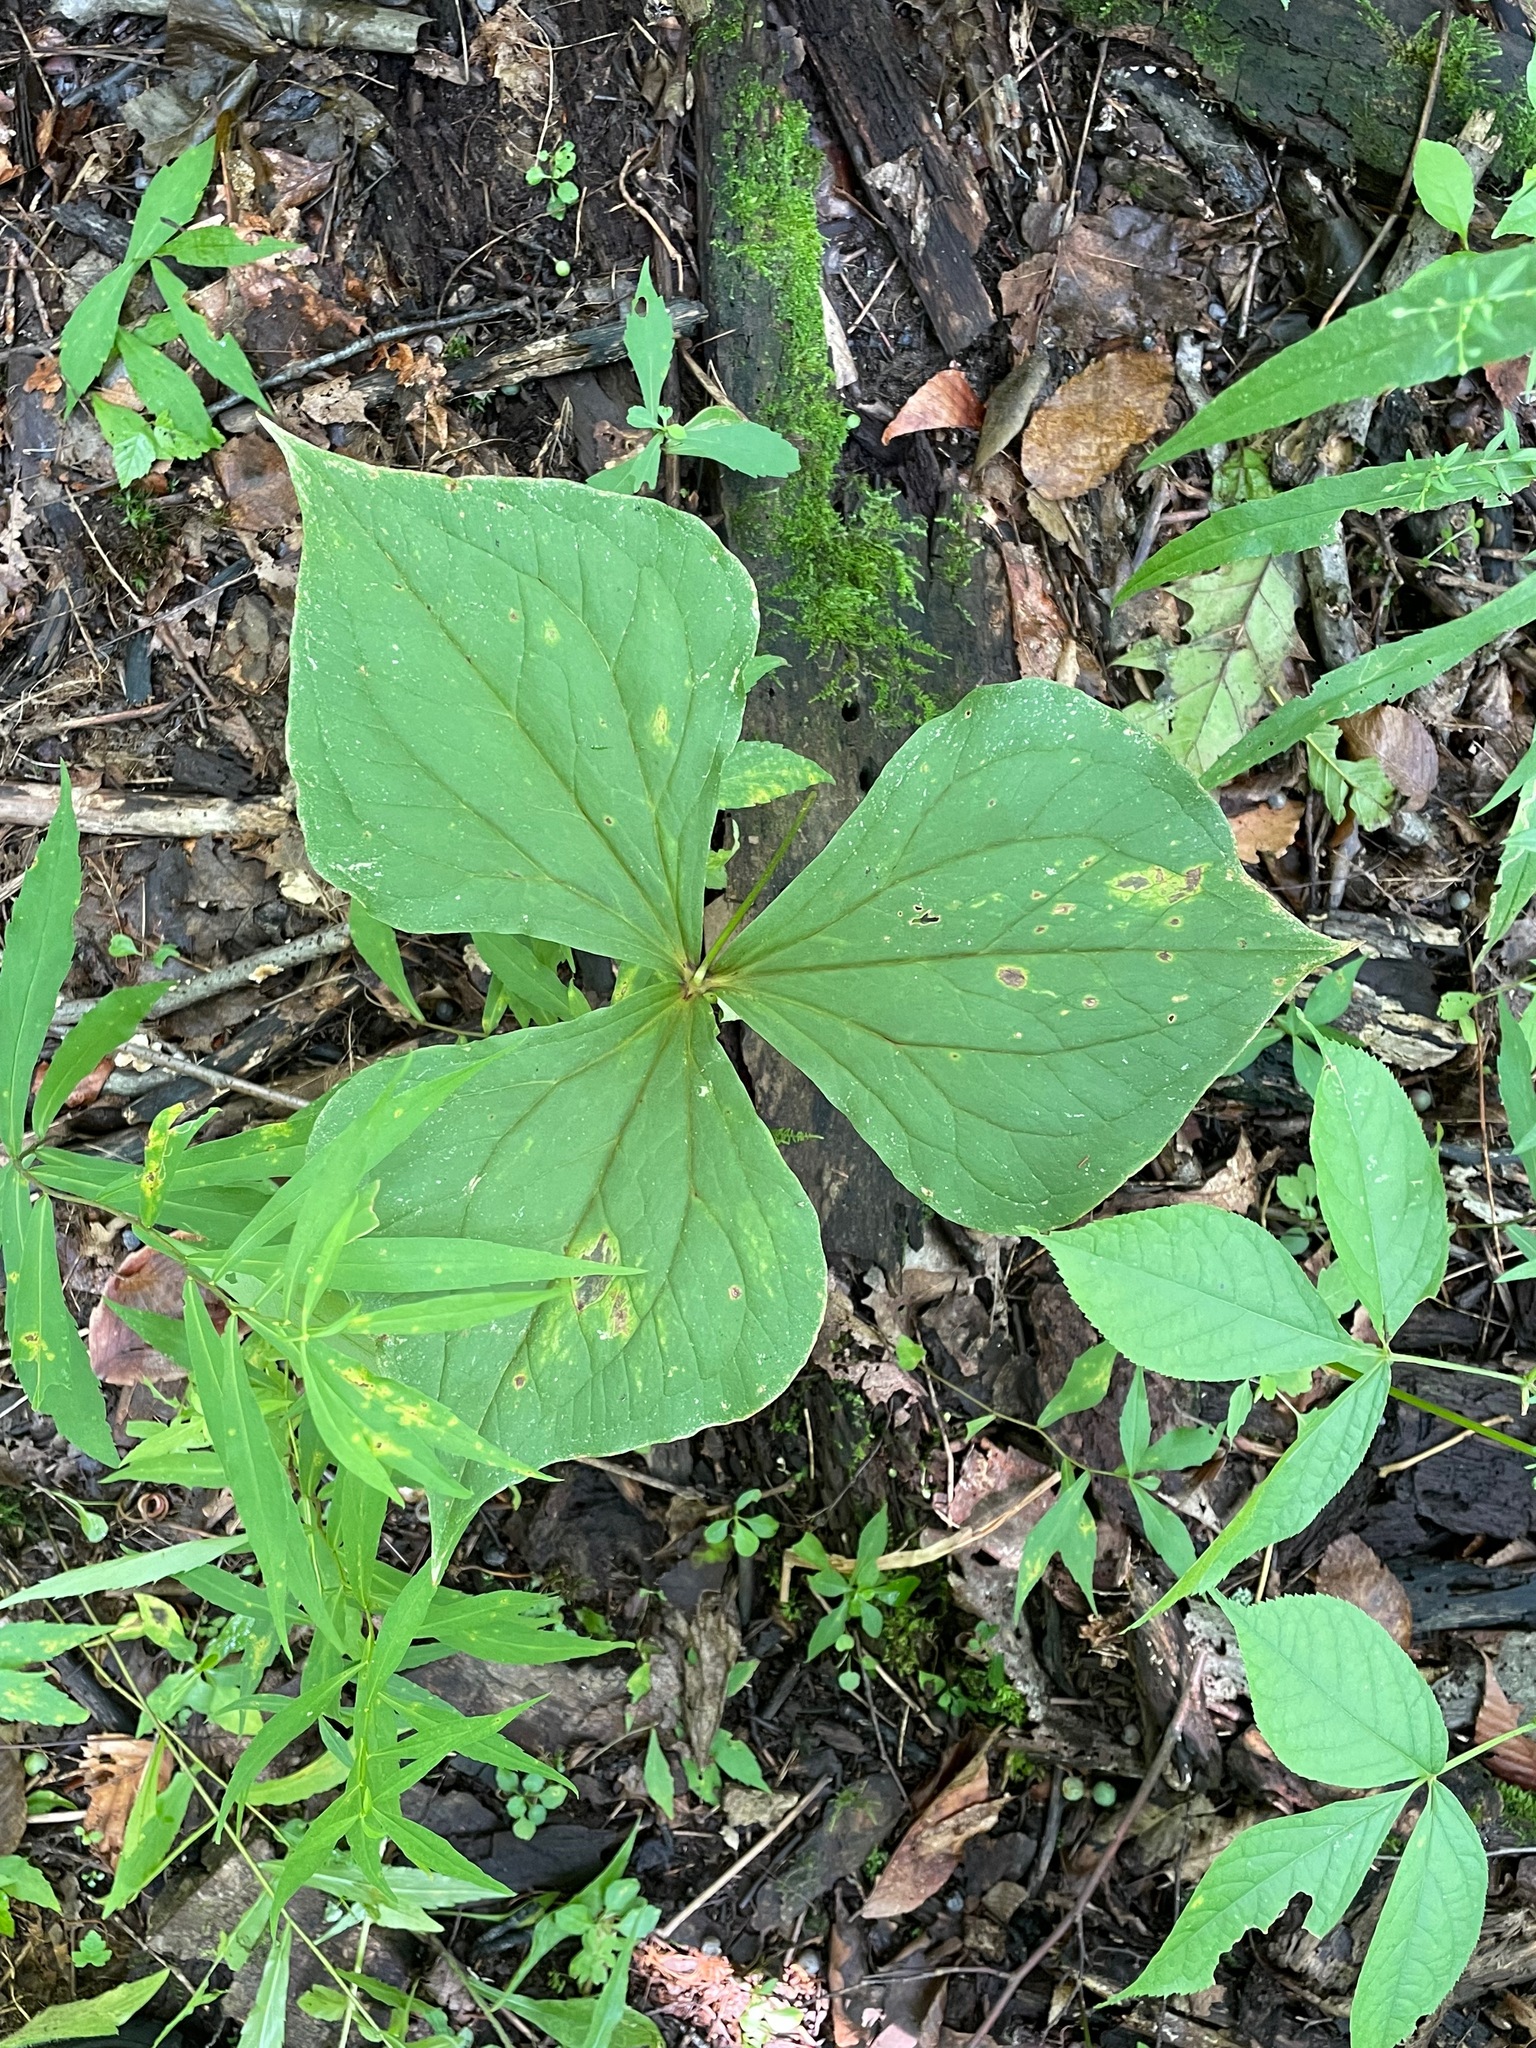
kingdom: Plantae
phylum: Tracheophyta
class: Liliopsida
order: Liliales
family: Melanthiaceae
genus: Trillium
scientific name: Trillium erectum
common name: Purple trillium
